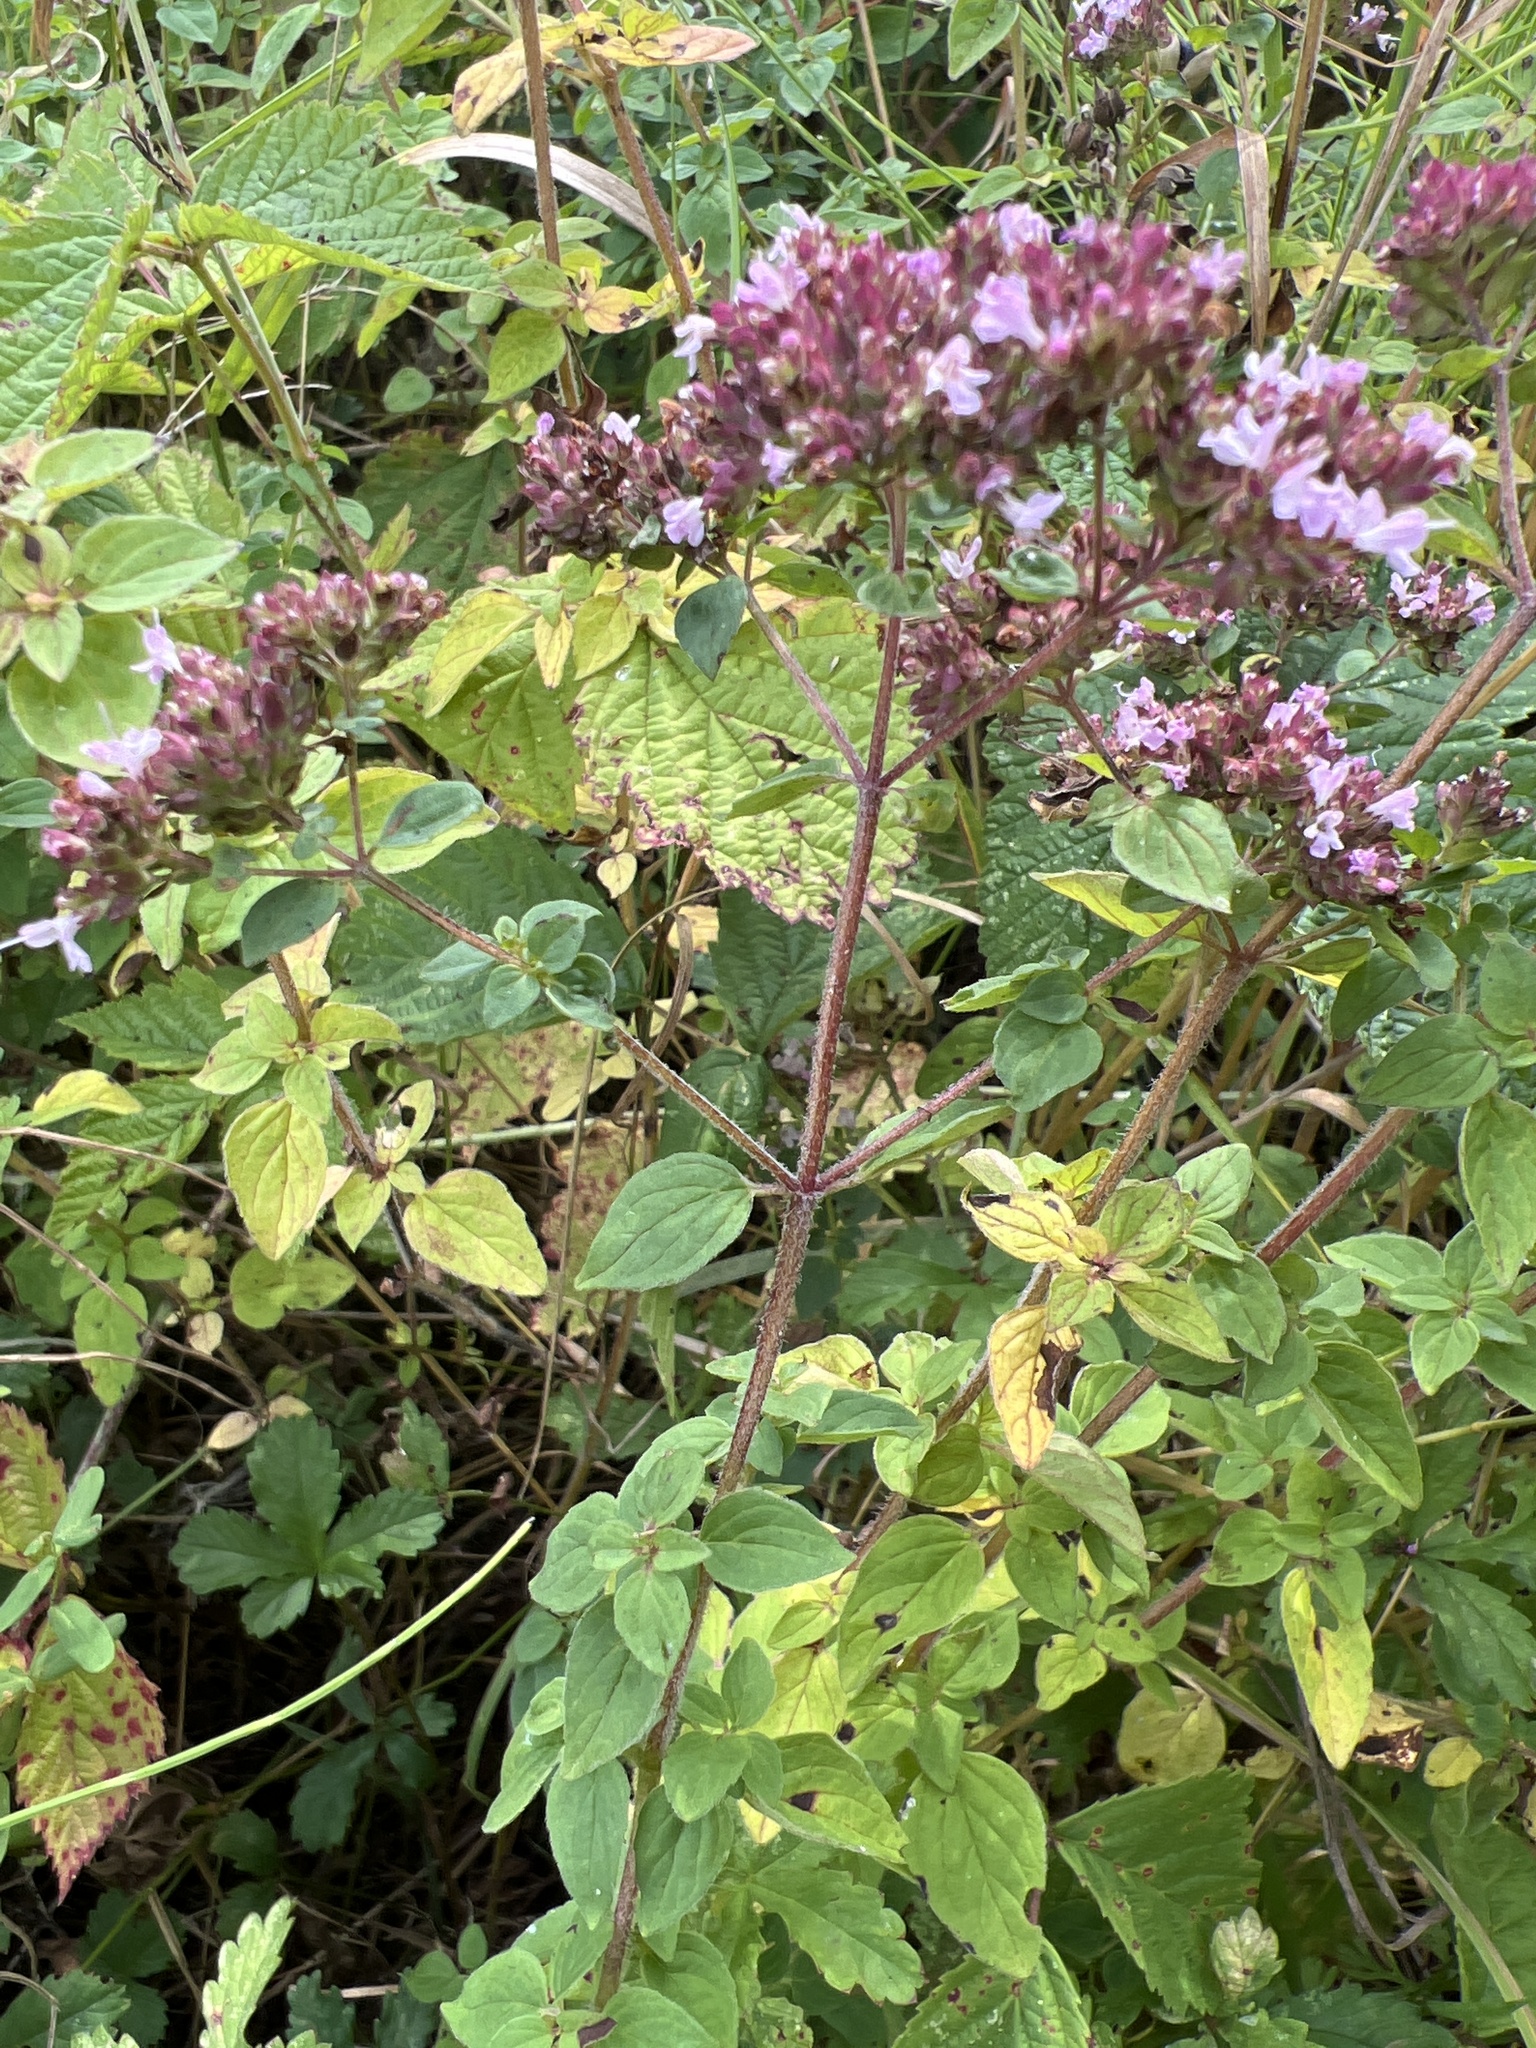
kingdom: Plantae
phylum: Tracheophyta
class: Magnoliopsida
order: Lamiales
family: Lamiaceae
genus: Origanum
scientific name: Origanum vulgare
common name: Wild marjoram
